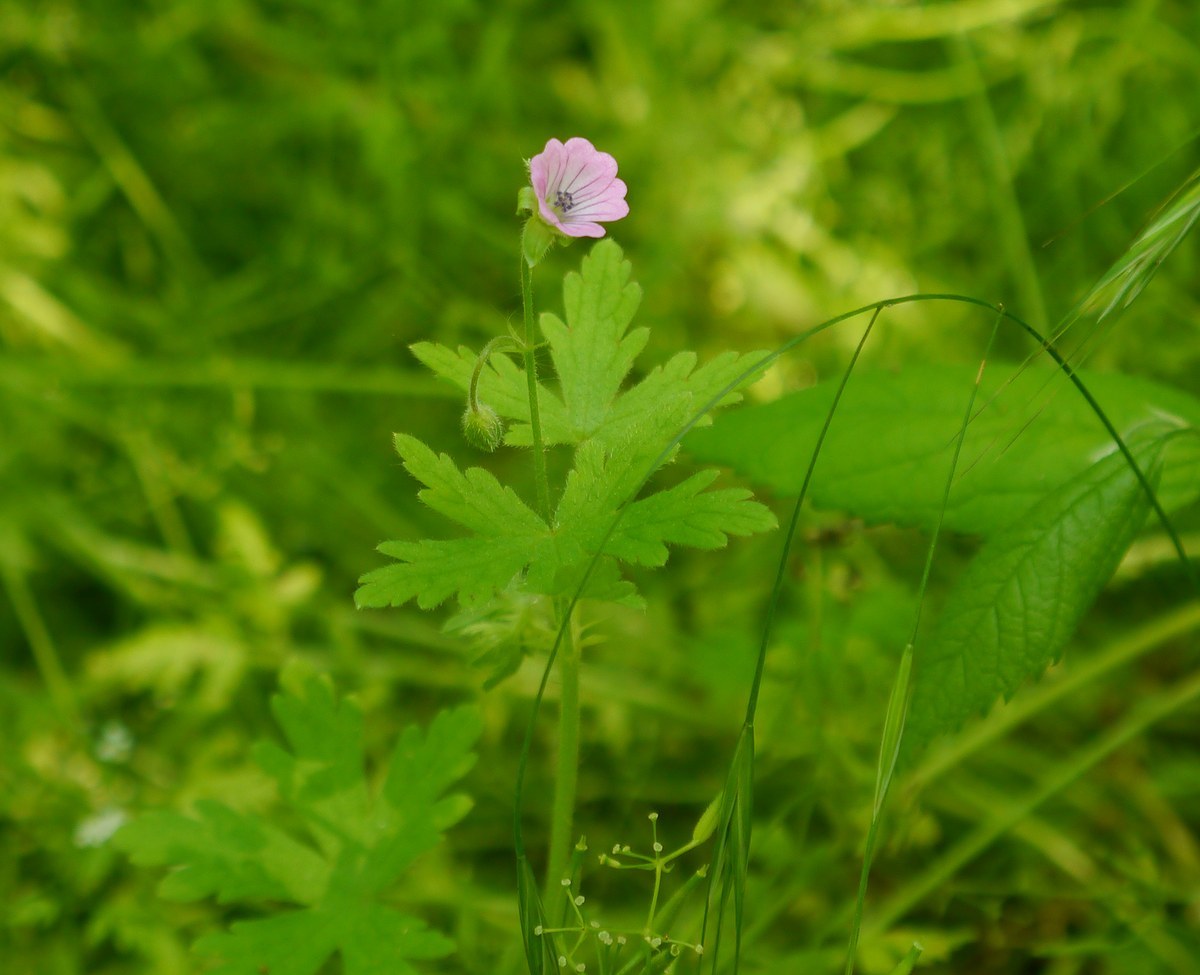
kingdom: Plantae
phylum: Tracheophyta
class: Magnoliopsida
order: Geraniales
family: Geraniaceae
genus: Geranium
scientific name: Geranium divaricatum
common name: Spreading crane's-bill
